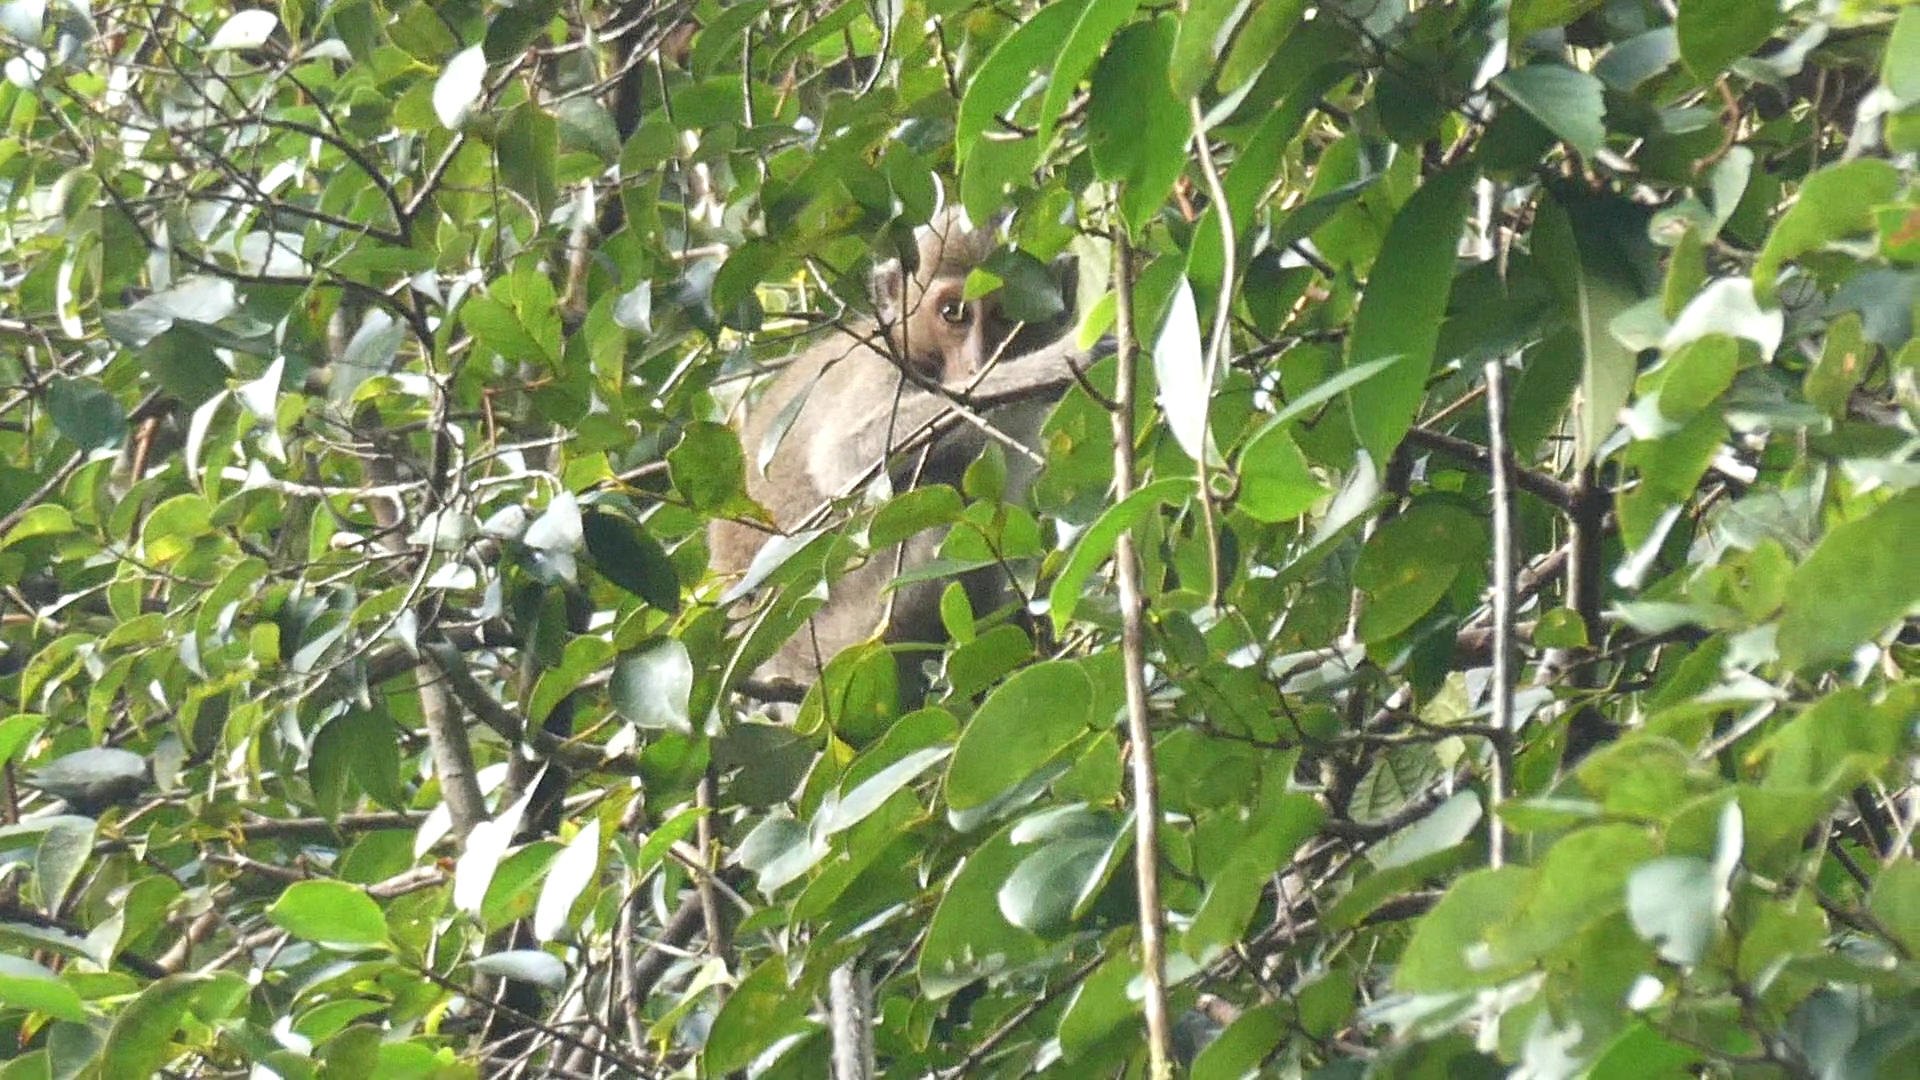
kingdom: Animalia
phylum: Chordata
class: Mammalia
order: Primates
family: Cercopithecidae
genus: Macaca
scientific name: Macaca fascicularis
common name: Crab-eating macaque
